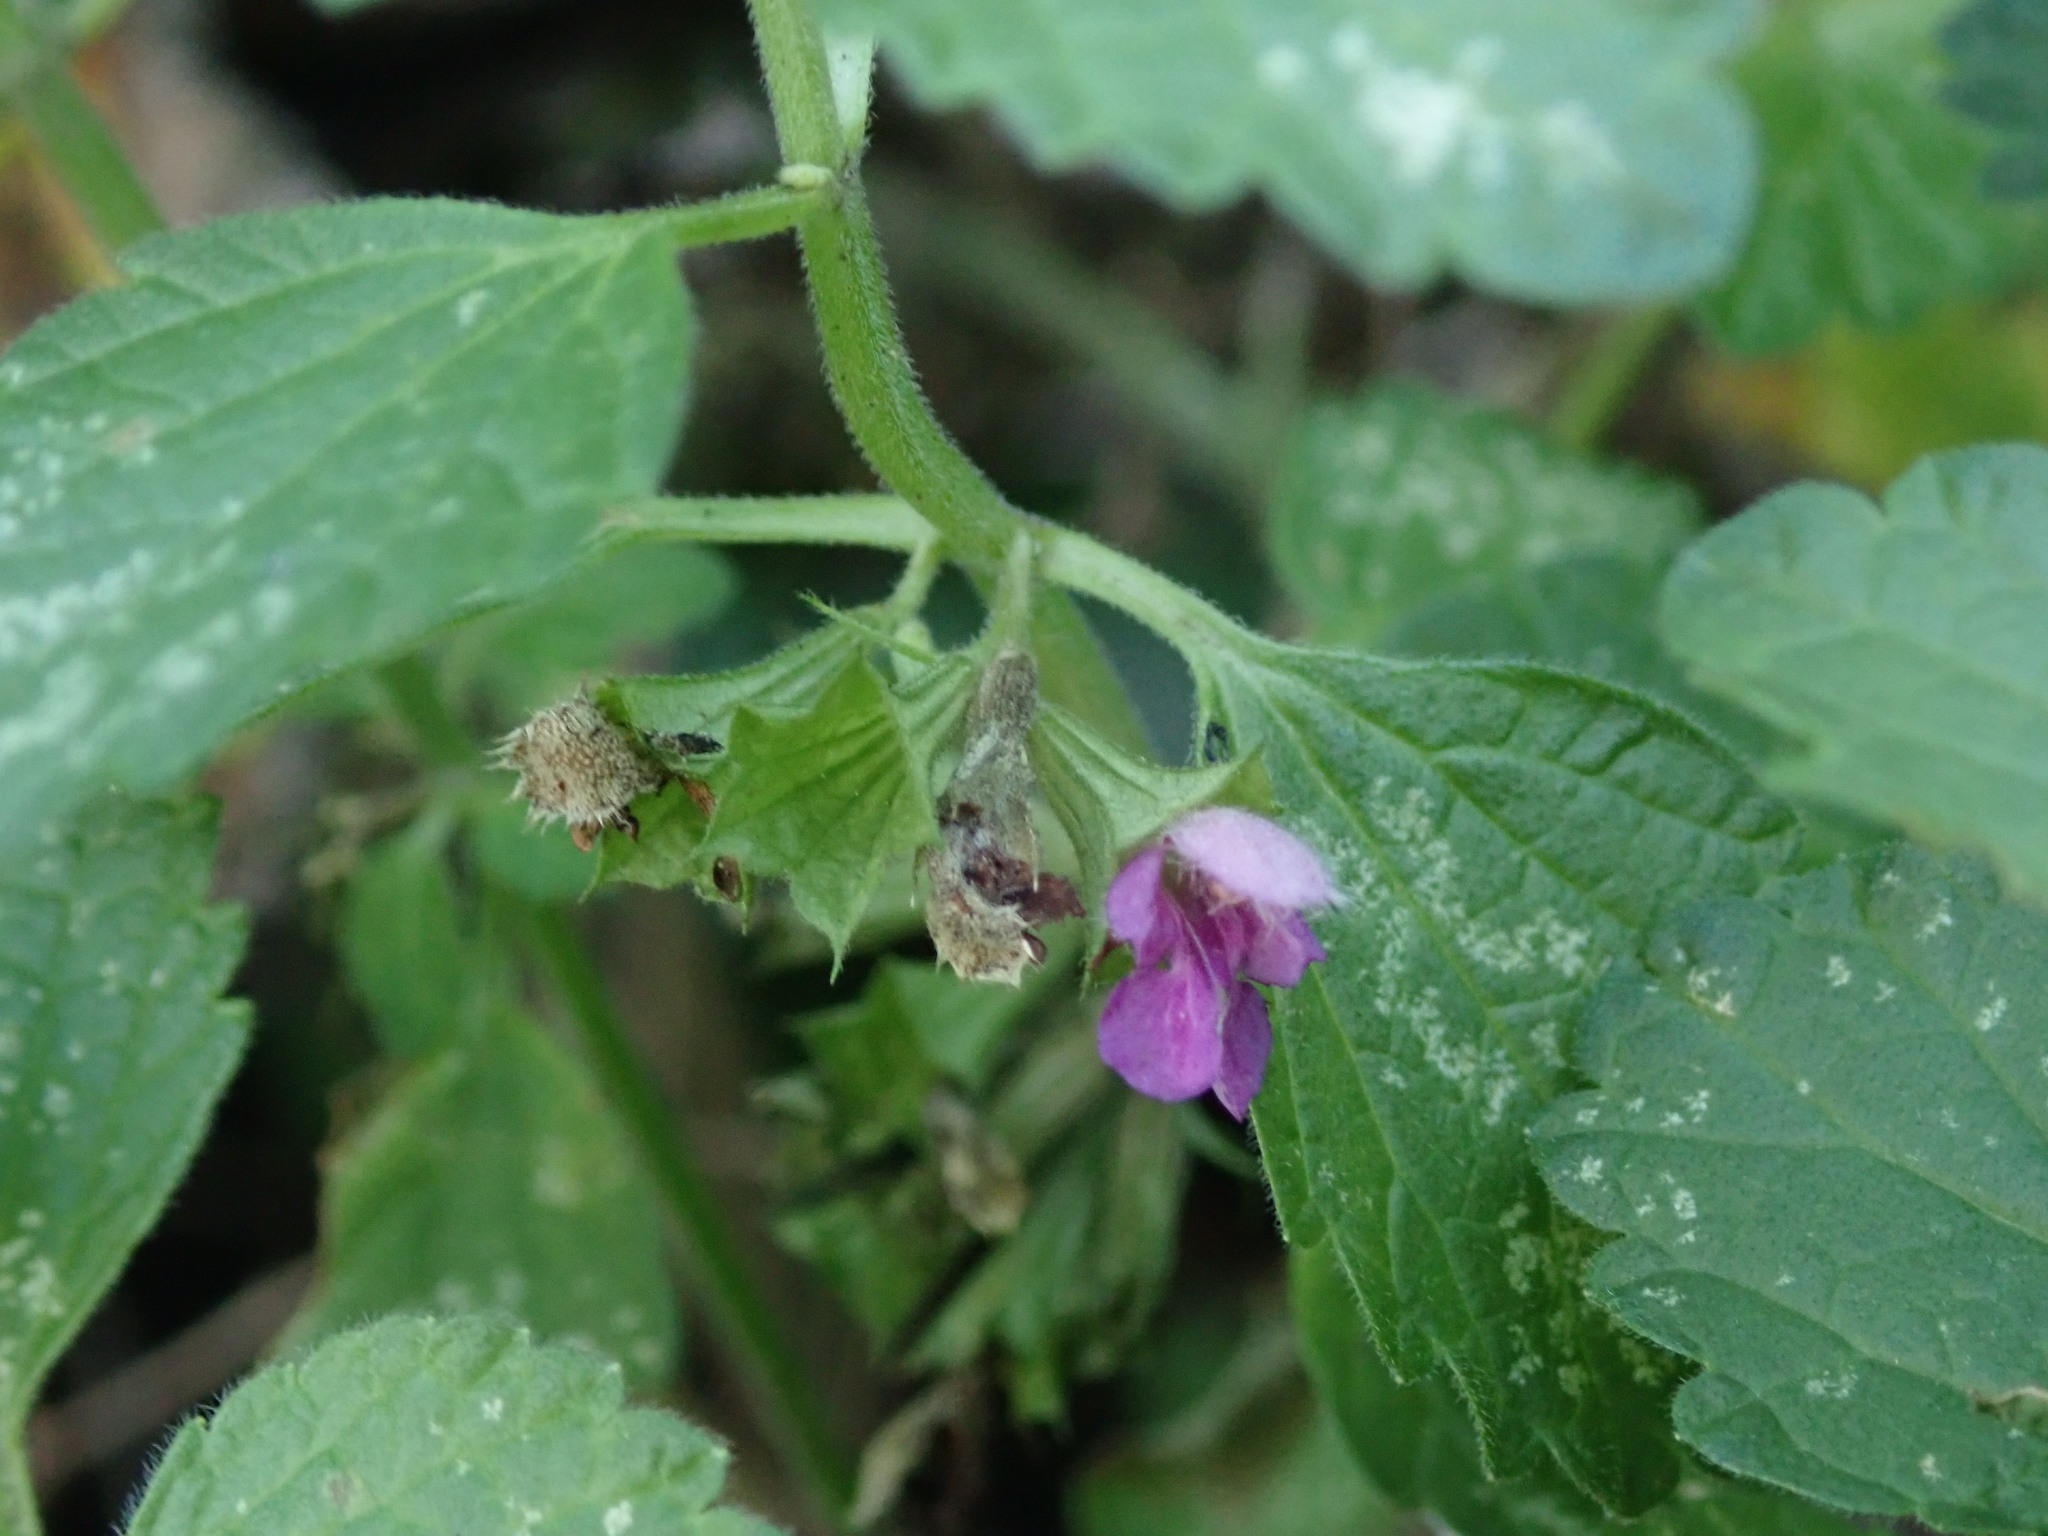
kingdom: Plantae
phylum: Tracheophyta
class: Magnoliopsida
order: Lamiales
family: Lamiaceae
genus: Ballota
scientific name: Ballota nigra
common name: Black horehound
